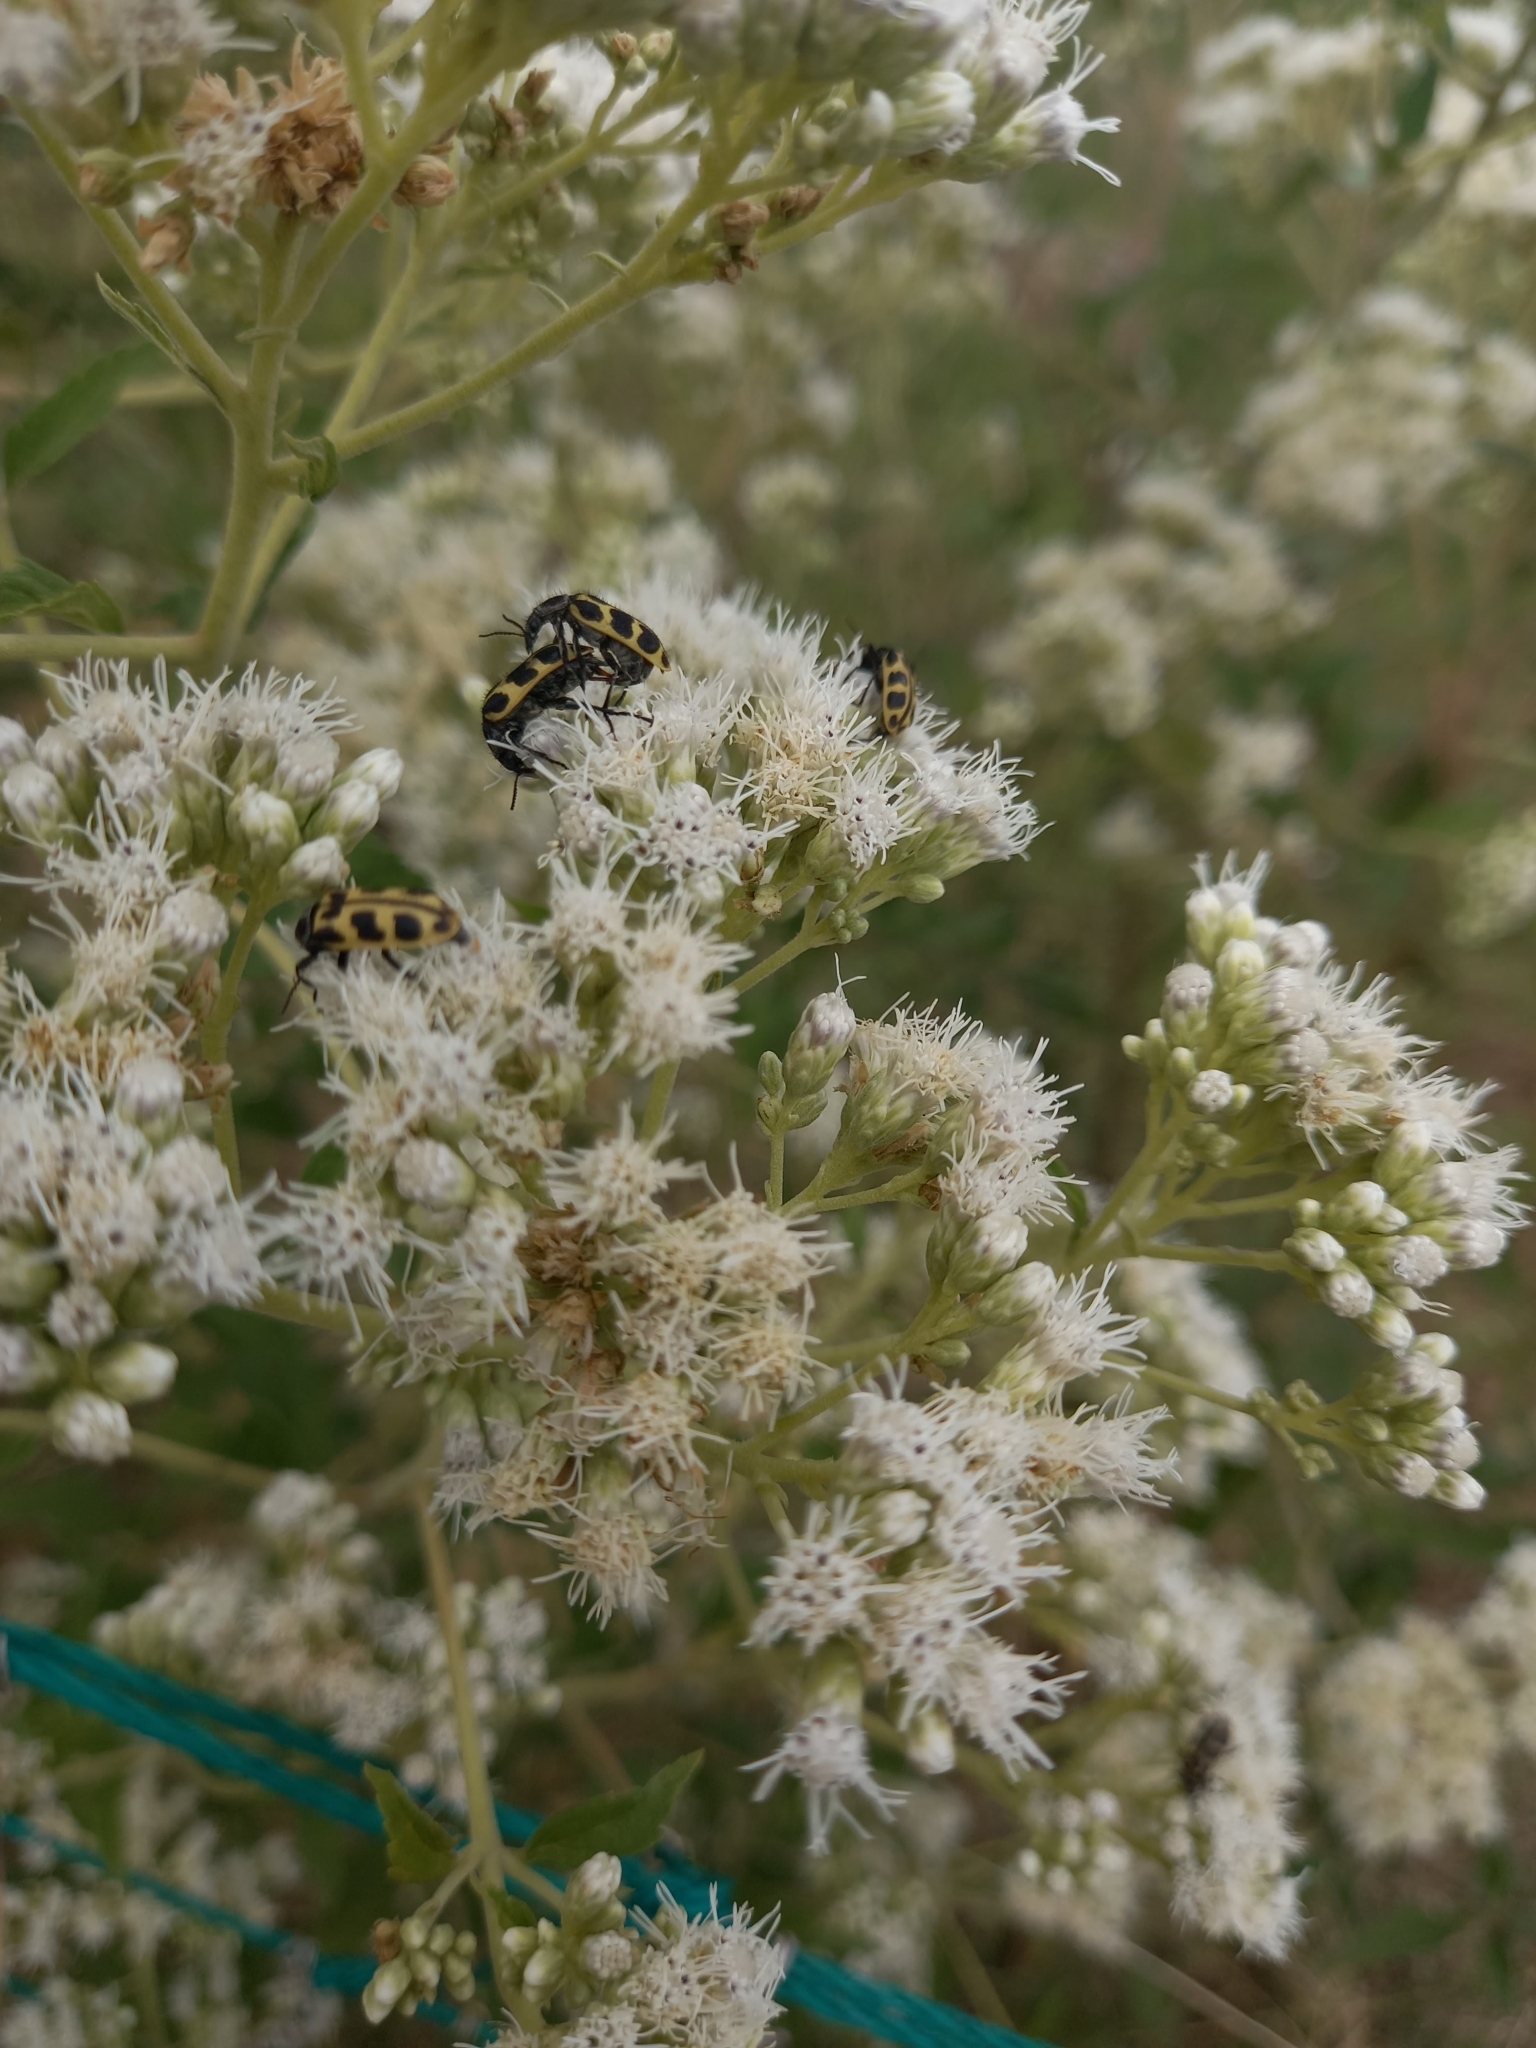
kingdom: Animalia
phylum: Arthropoda
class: Insecta
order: Coleoptera
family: Melyridae
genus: Astylus
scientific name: Astylus atromaculatus
